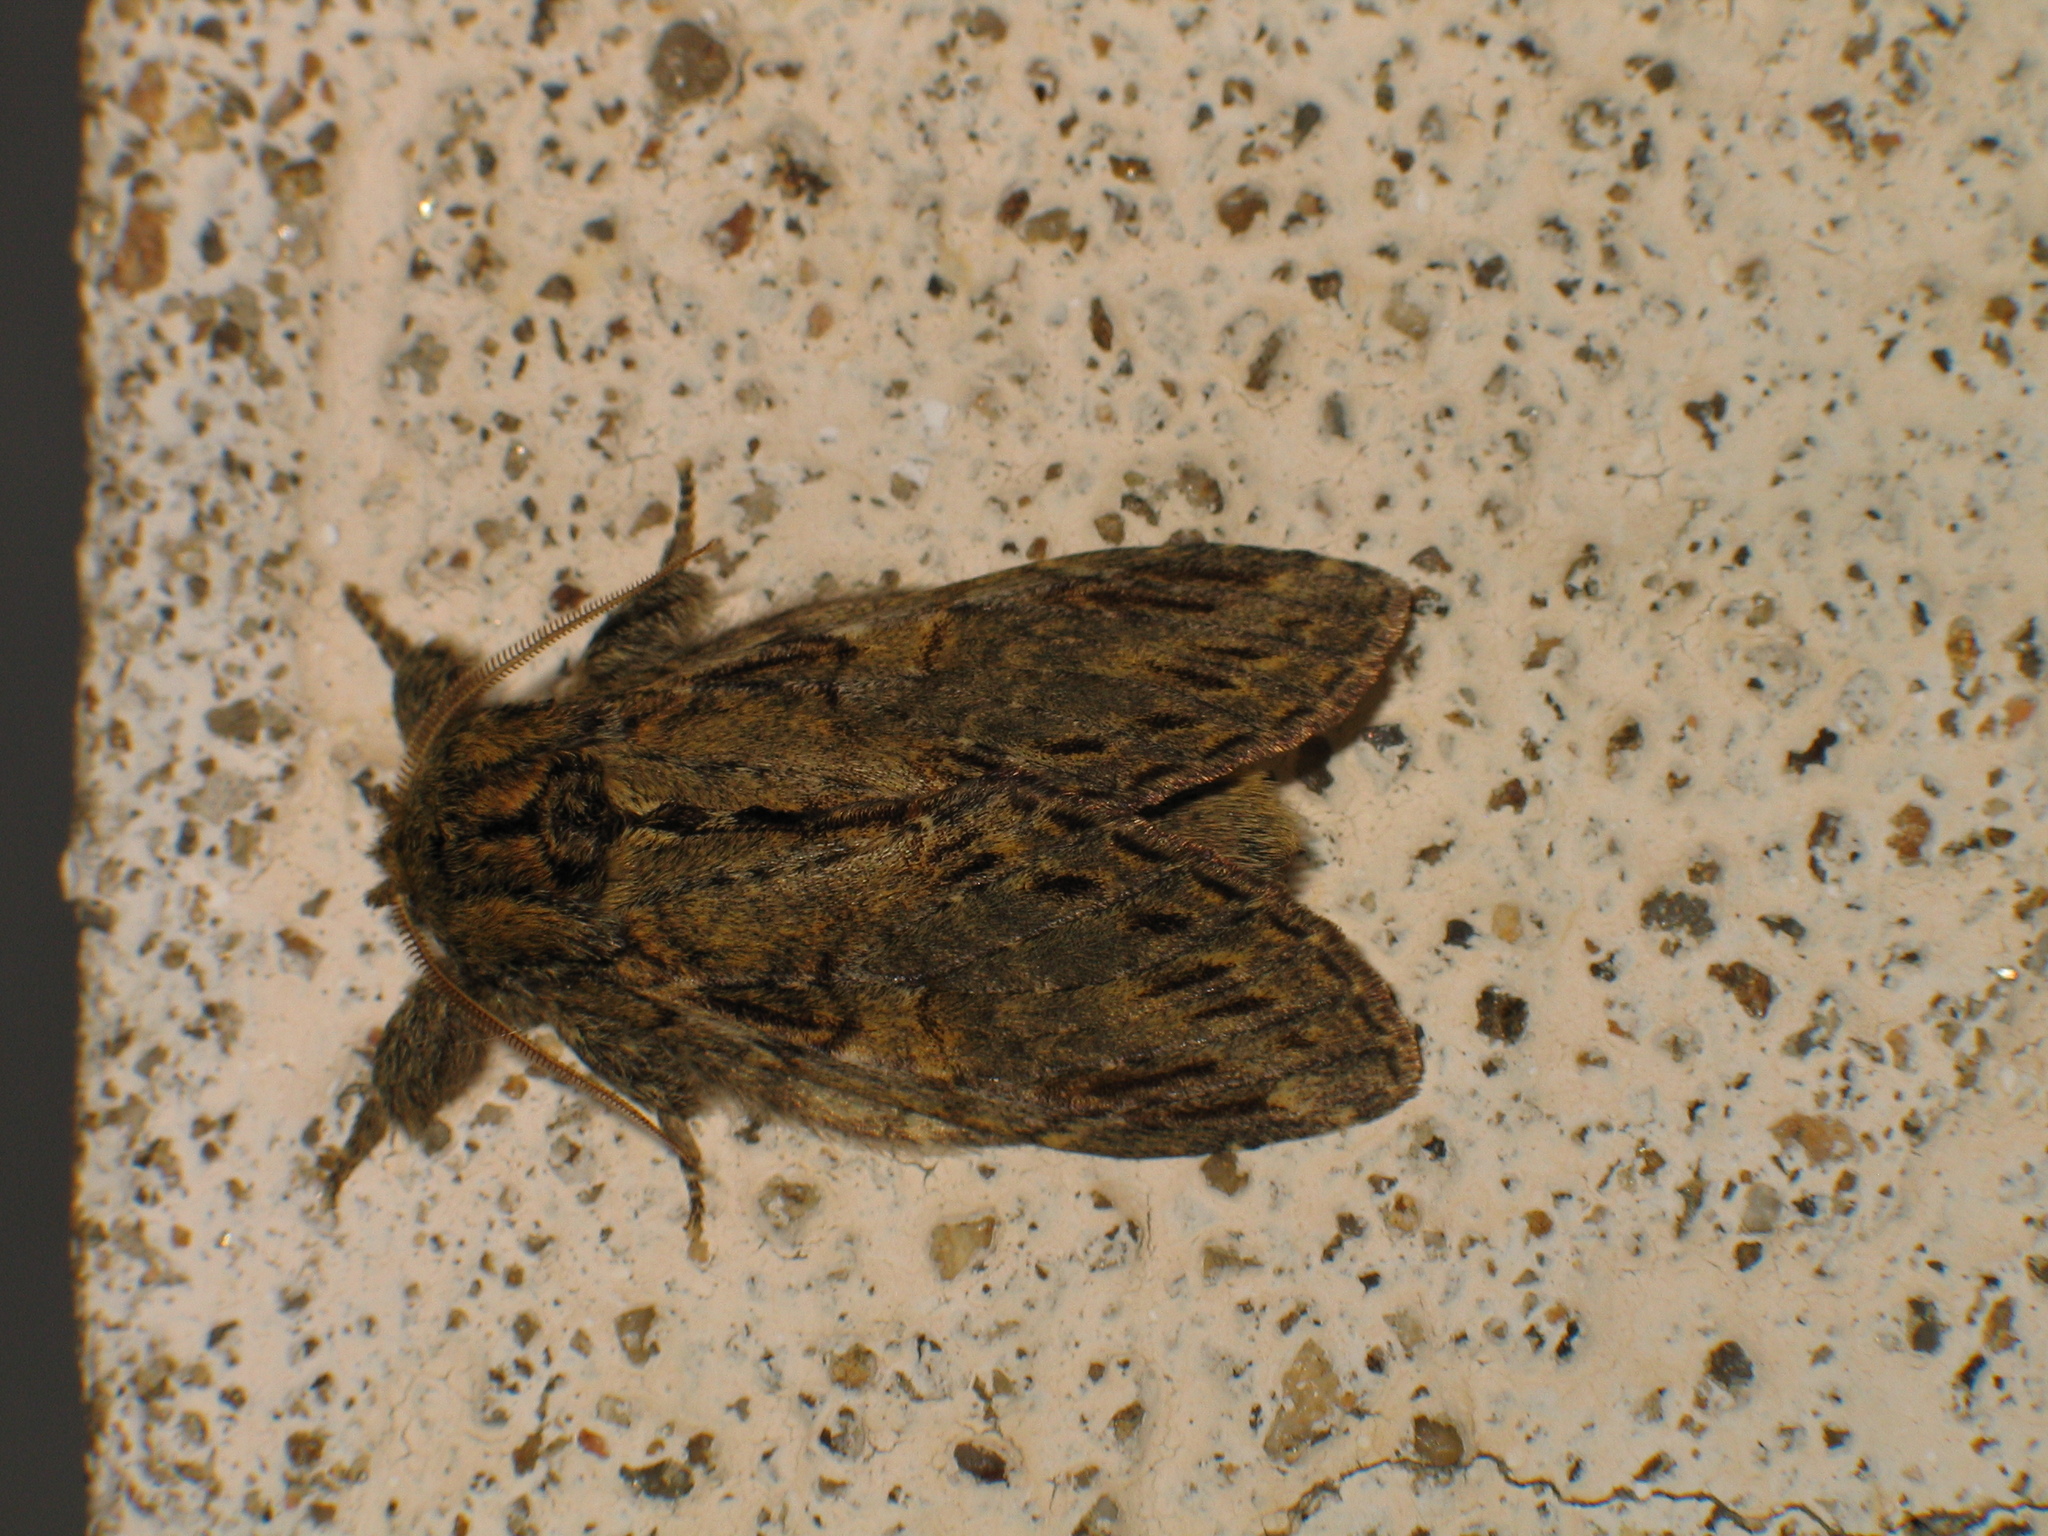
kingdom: Animalia
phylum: Arthropoda
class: Insecta
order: Lepidoptera
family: Notodontidae
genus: Peridea
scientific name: Peridea anceps
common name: Great prominent
